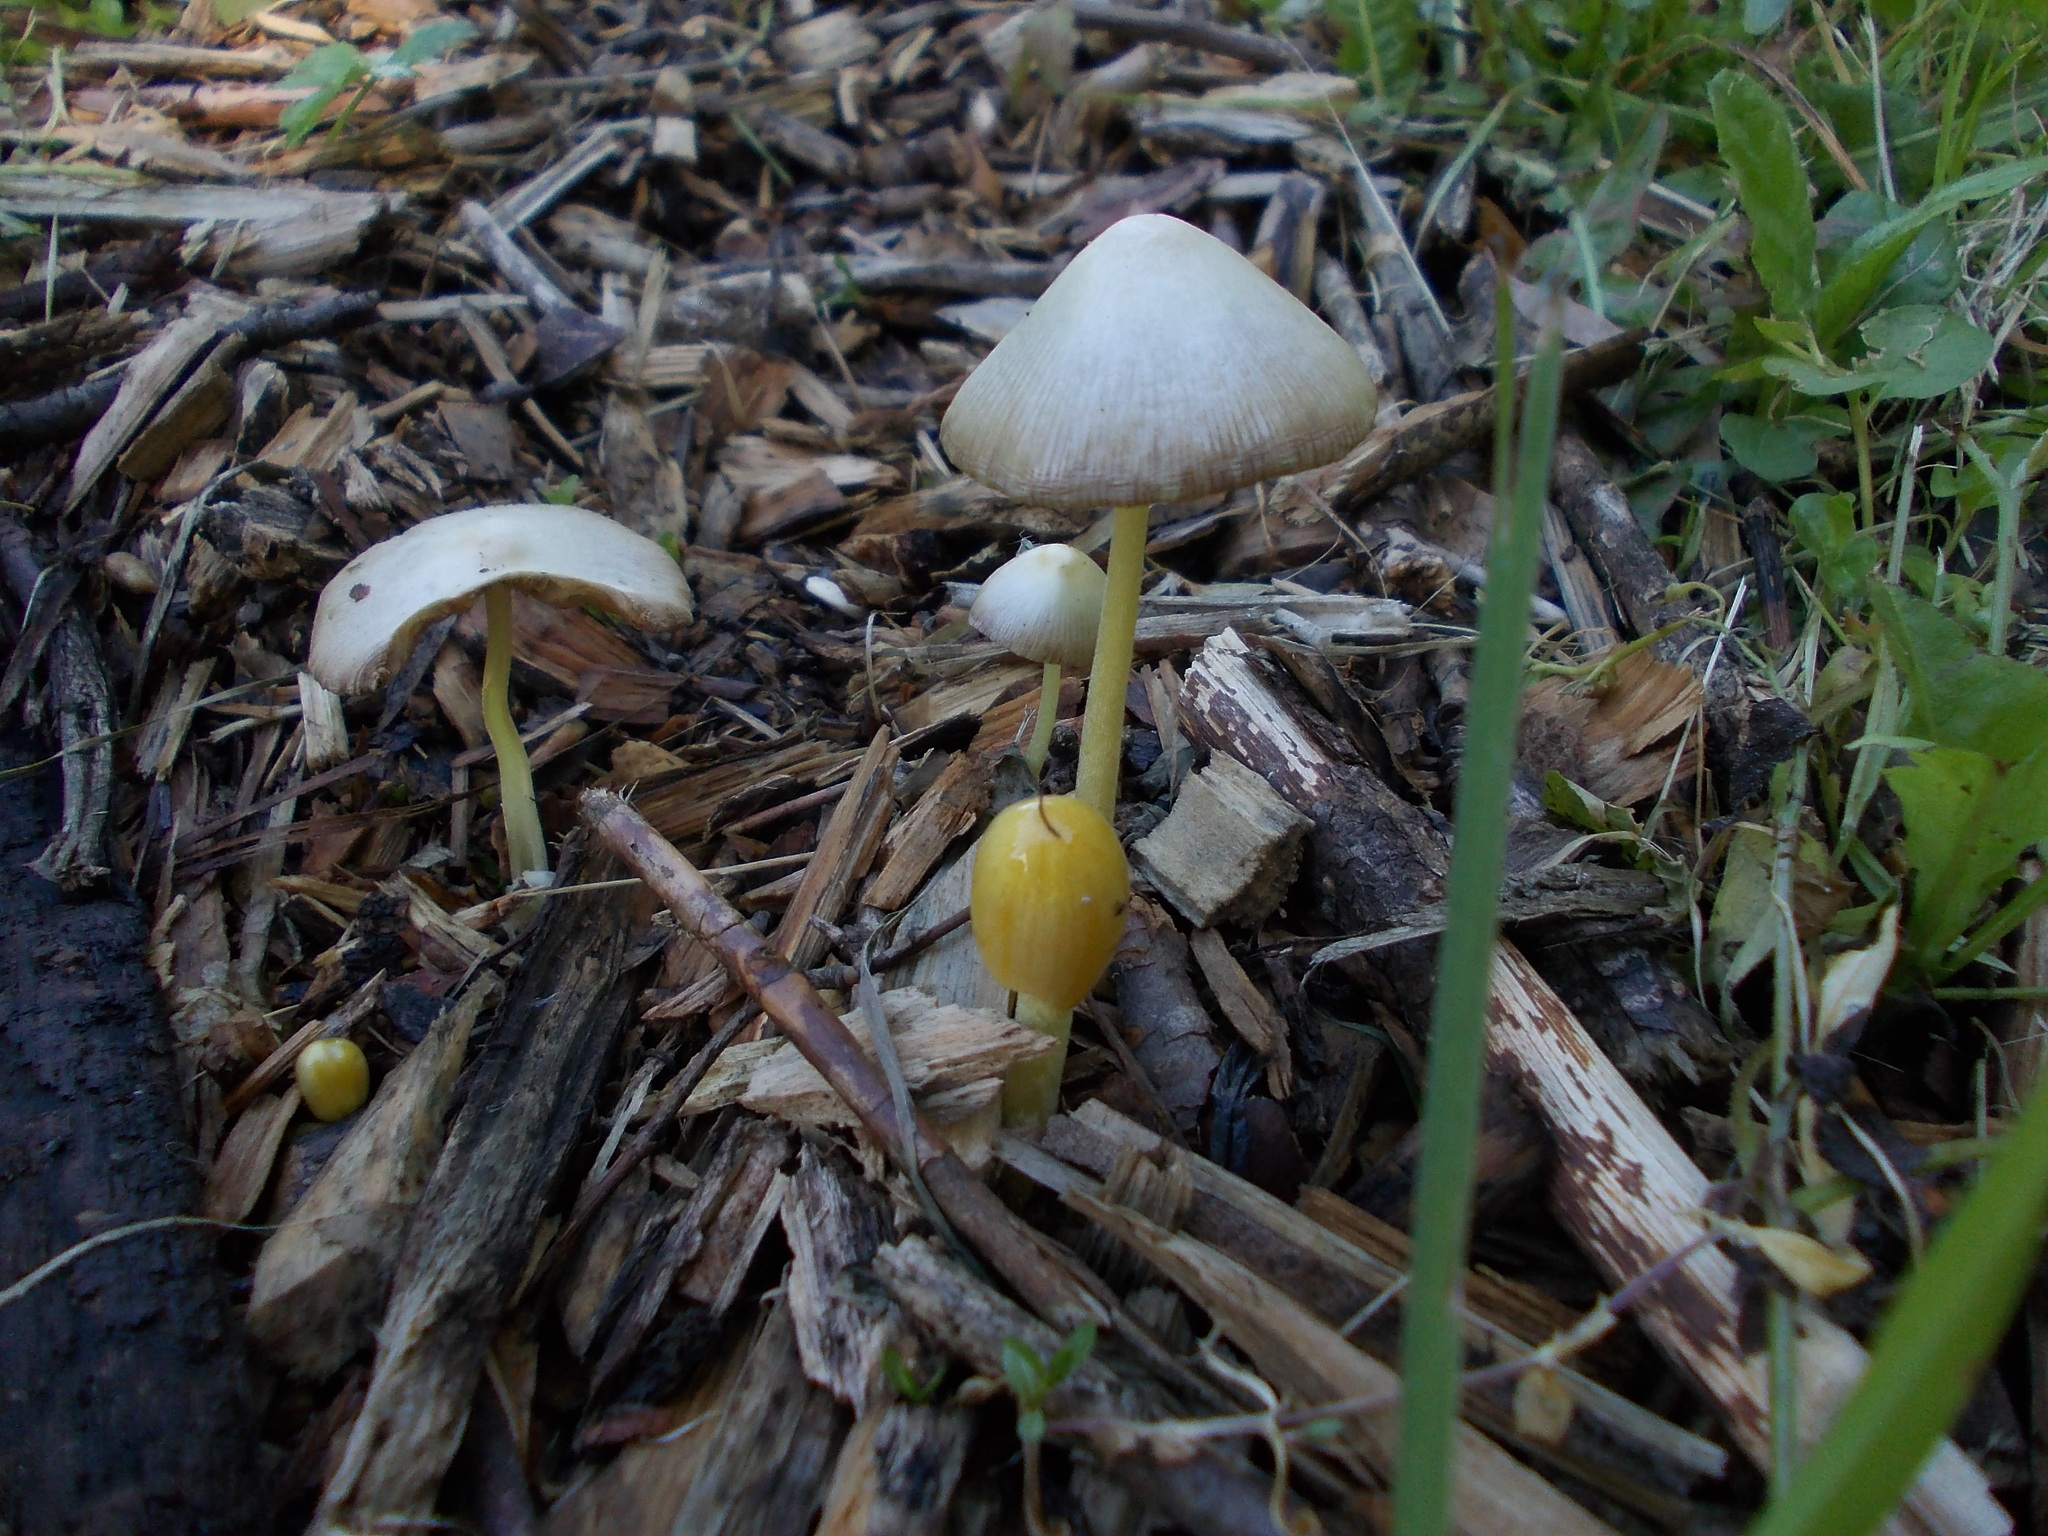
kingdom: Fungi
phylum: Basidiomycota
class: Agaricomycetes
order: Agaricales
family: Bolbitiaceae
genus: Bolbitius
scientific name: Bolbitius titubans
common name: Yellow fieldcap
